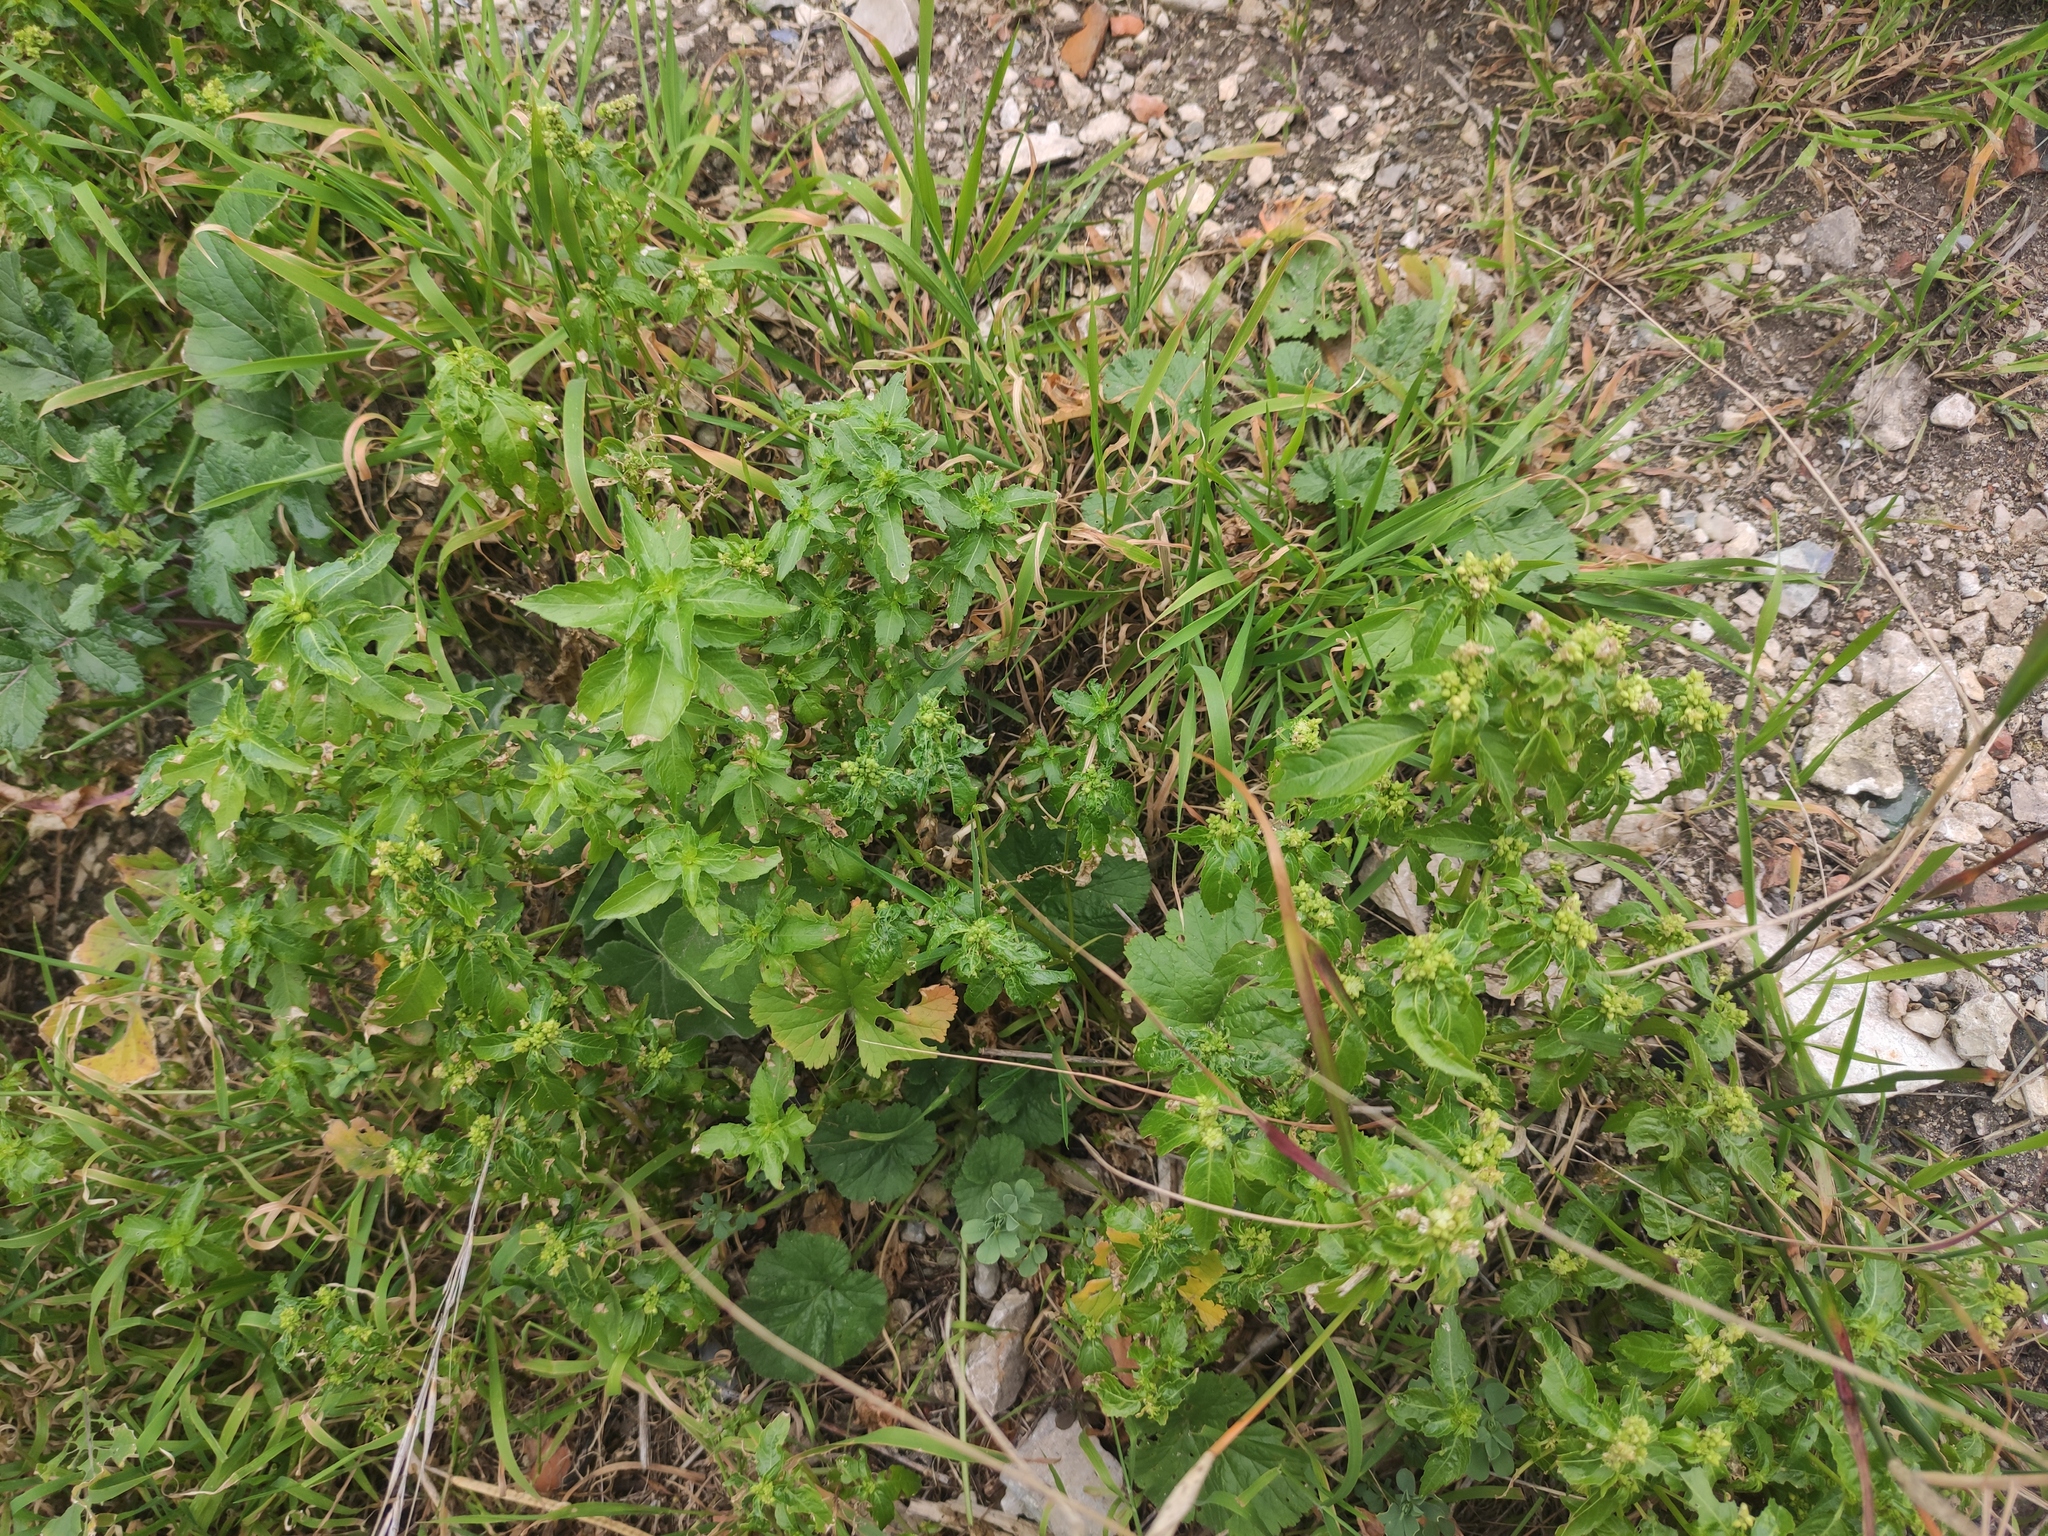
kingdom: Plantae
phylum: Tracheophyta
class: Magnoliopsida
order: Malpighiales
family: Euphorbiaceae
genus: Mercurialis
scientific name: Mercurialis annua
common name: Annual mercury
